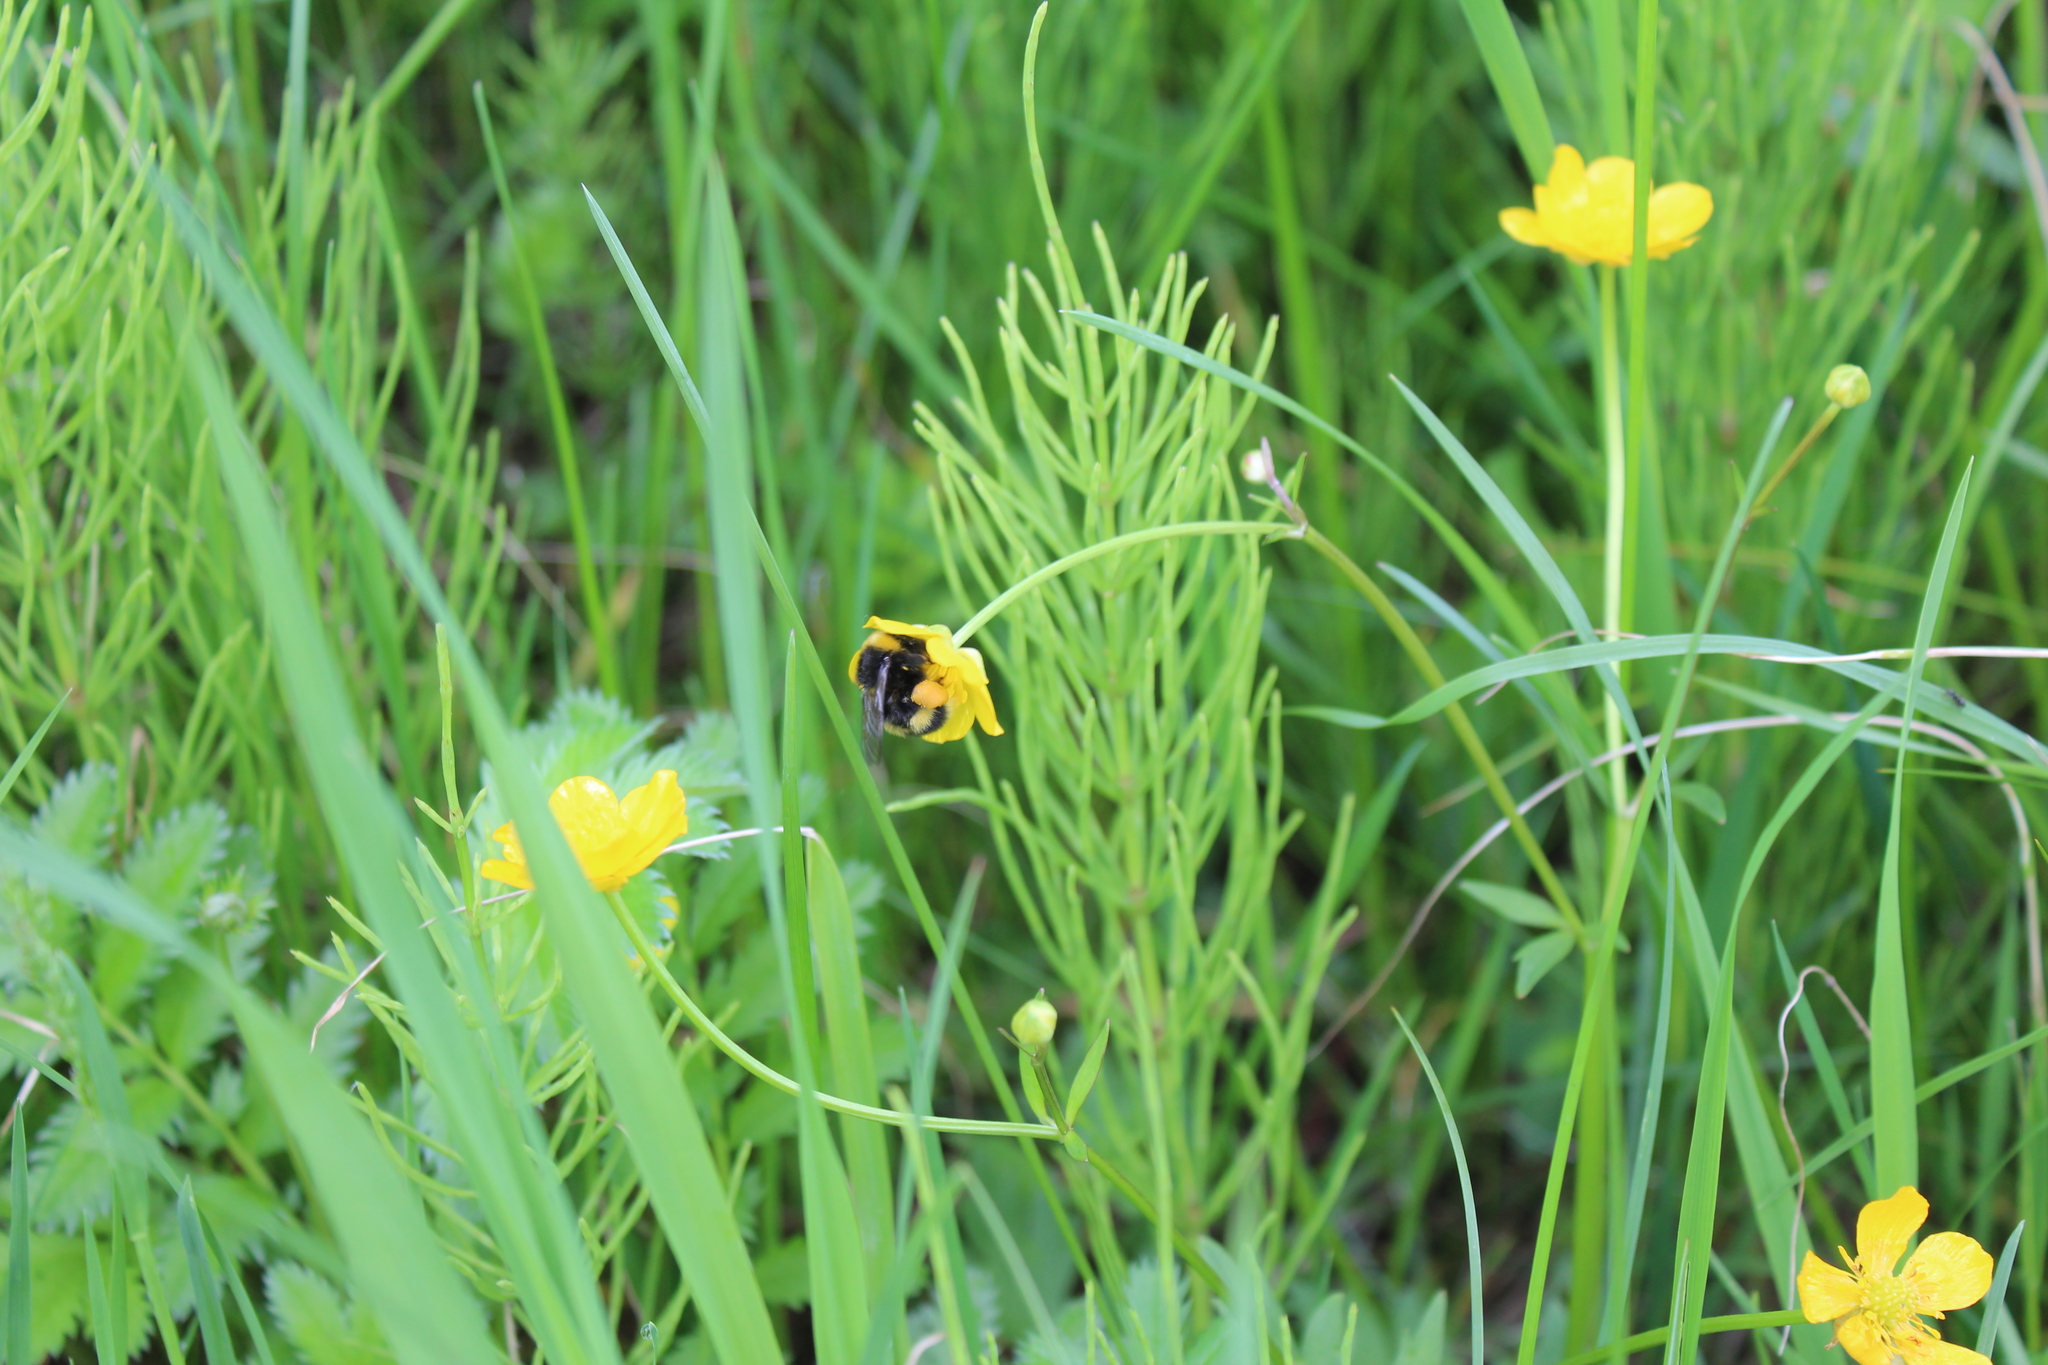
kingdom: Animalia
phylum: Arthropoda
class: Insecta
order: Hymenoptera
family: Apidae
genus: Bombus
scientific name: Bombus
